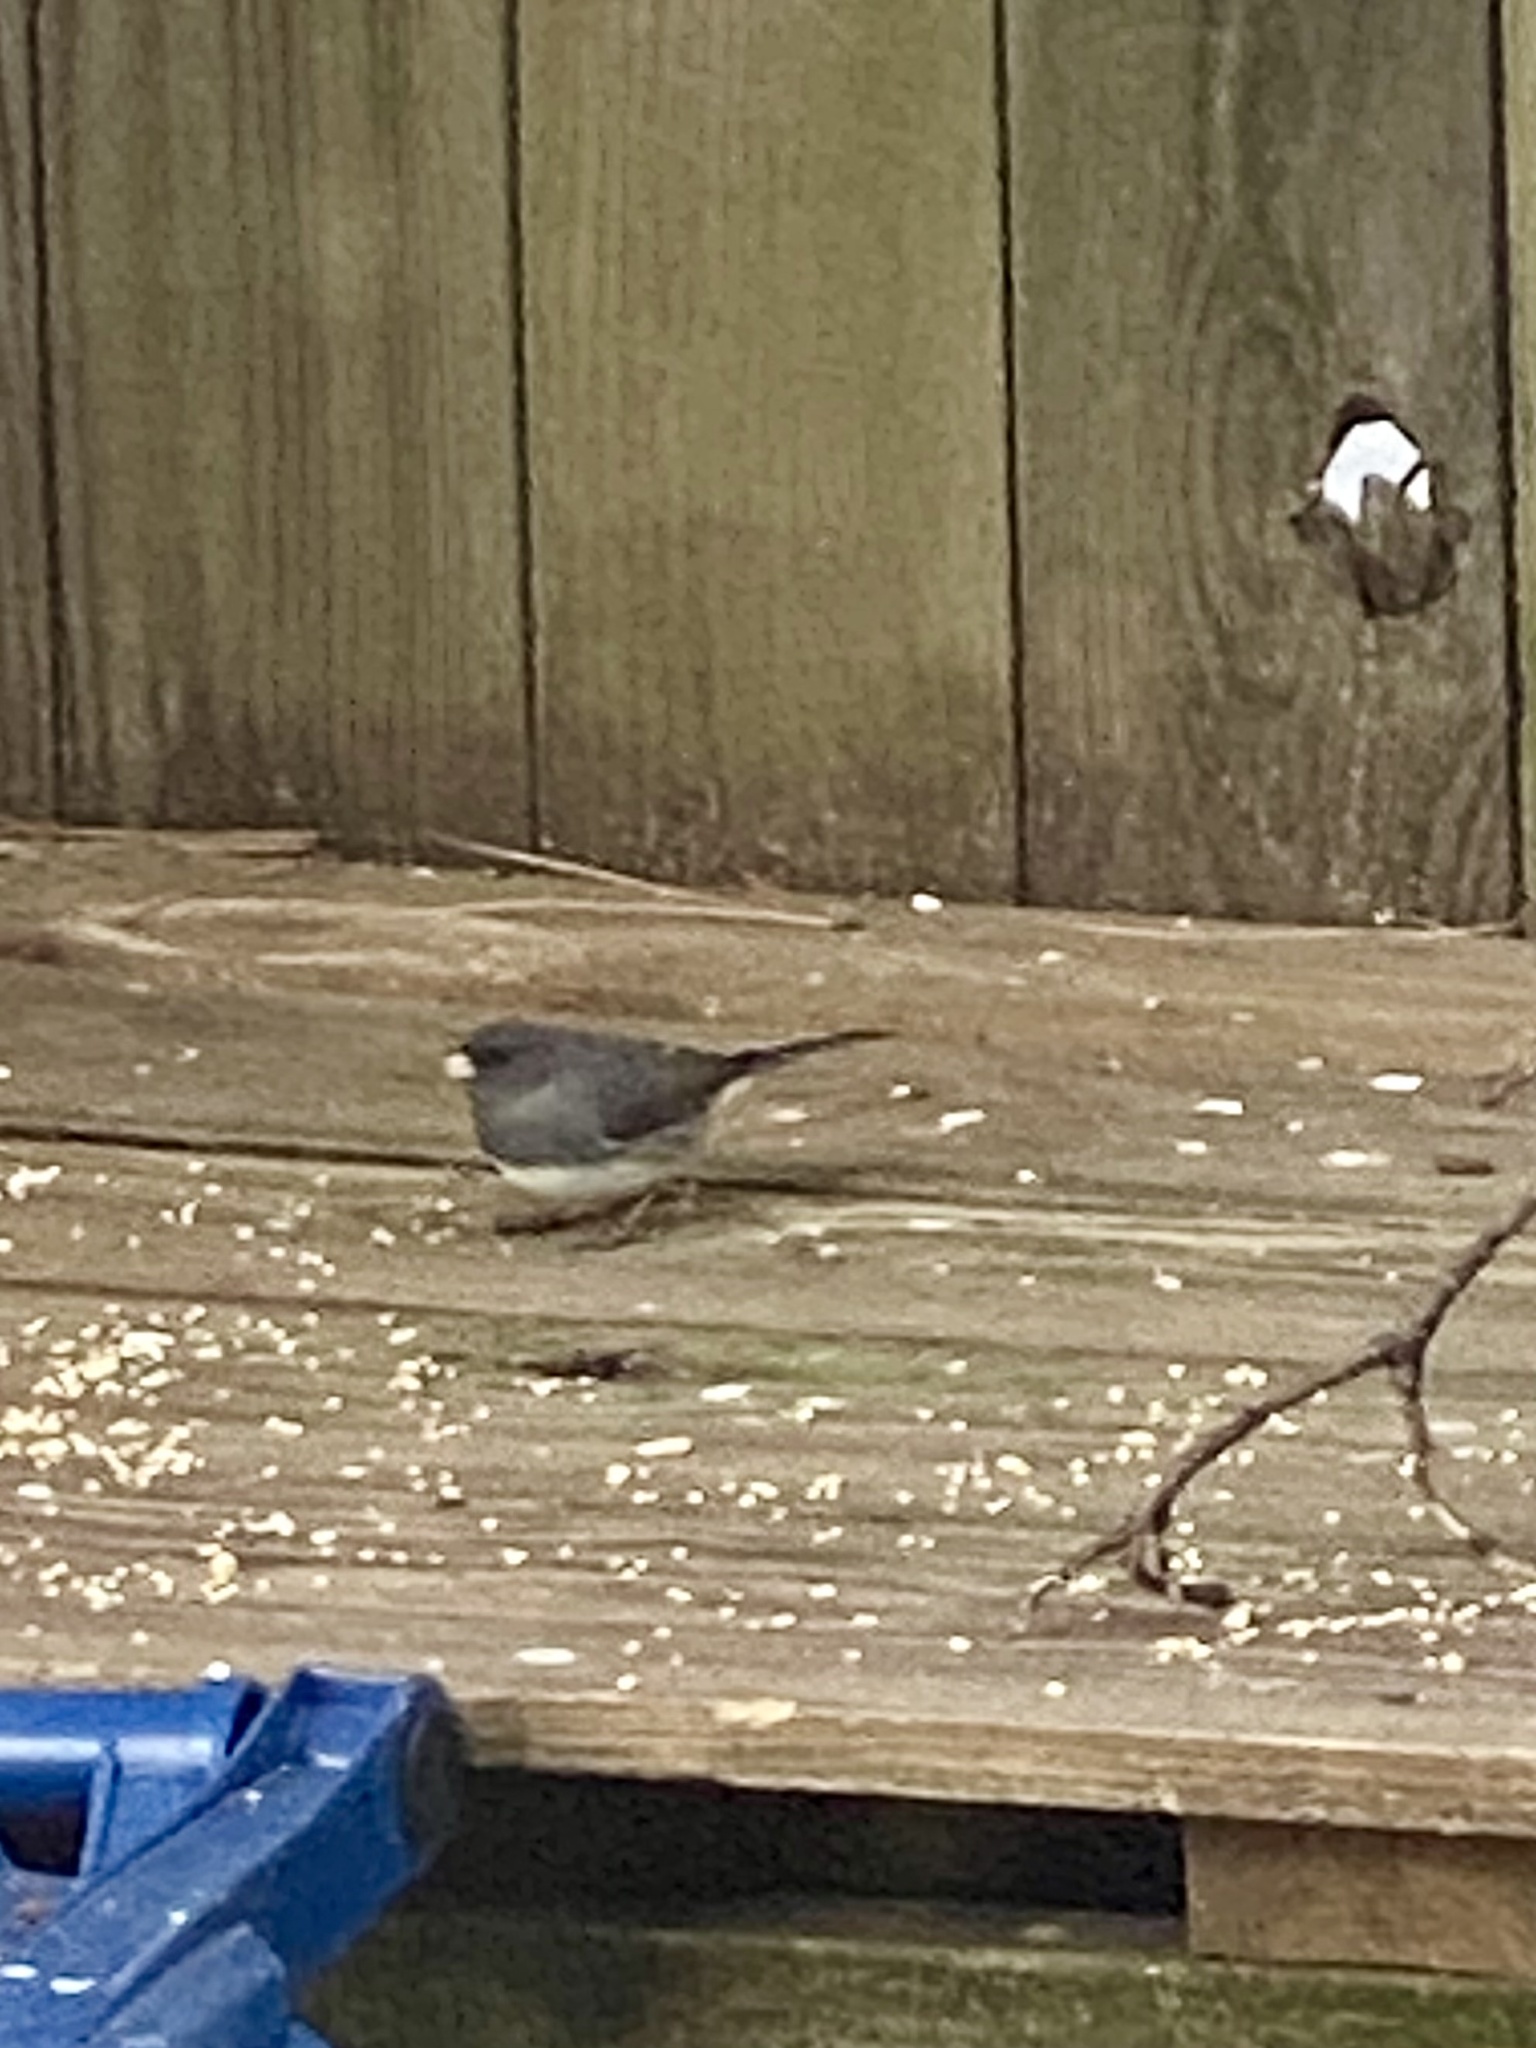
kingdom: Animalia
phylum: Chordata
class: Aves
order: Passeriformes
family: Passerellidae
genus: Junco
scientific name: Junco hyemalis
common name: Dark-eyed junco
